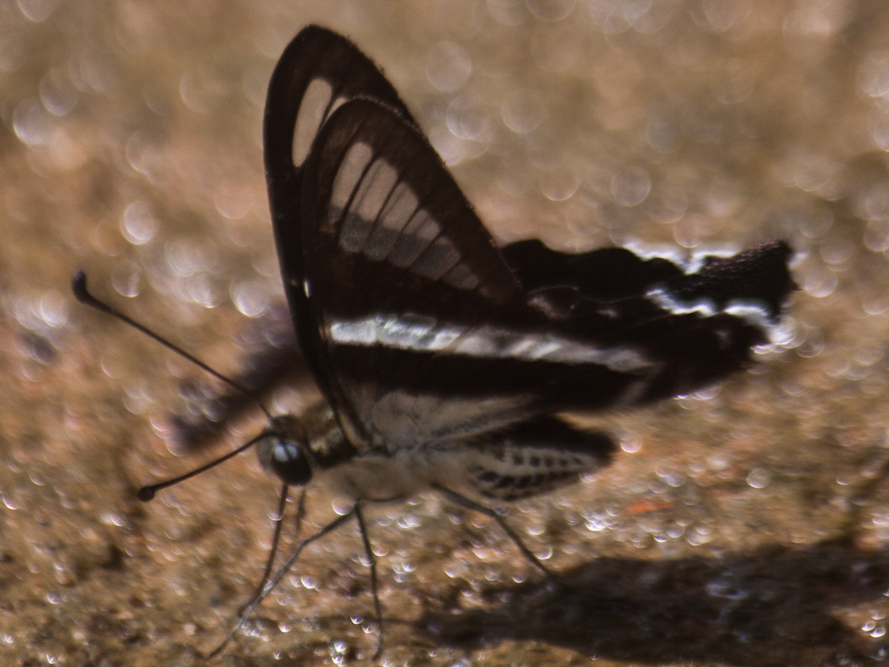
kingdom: Animalia
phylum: Arthropoda
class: Insecta
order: Lepidoptera
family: Papilionidae
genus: Lamproptera
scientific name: Lamproptera curius
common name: White dragontail
